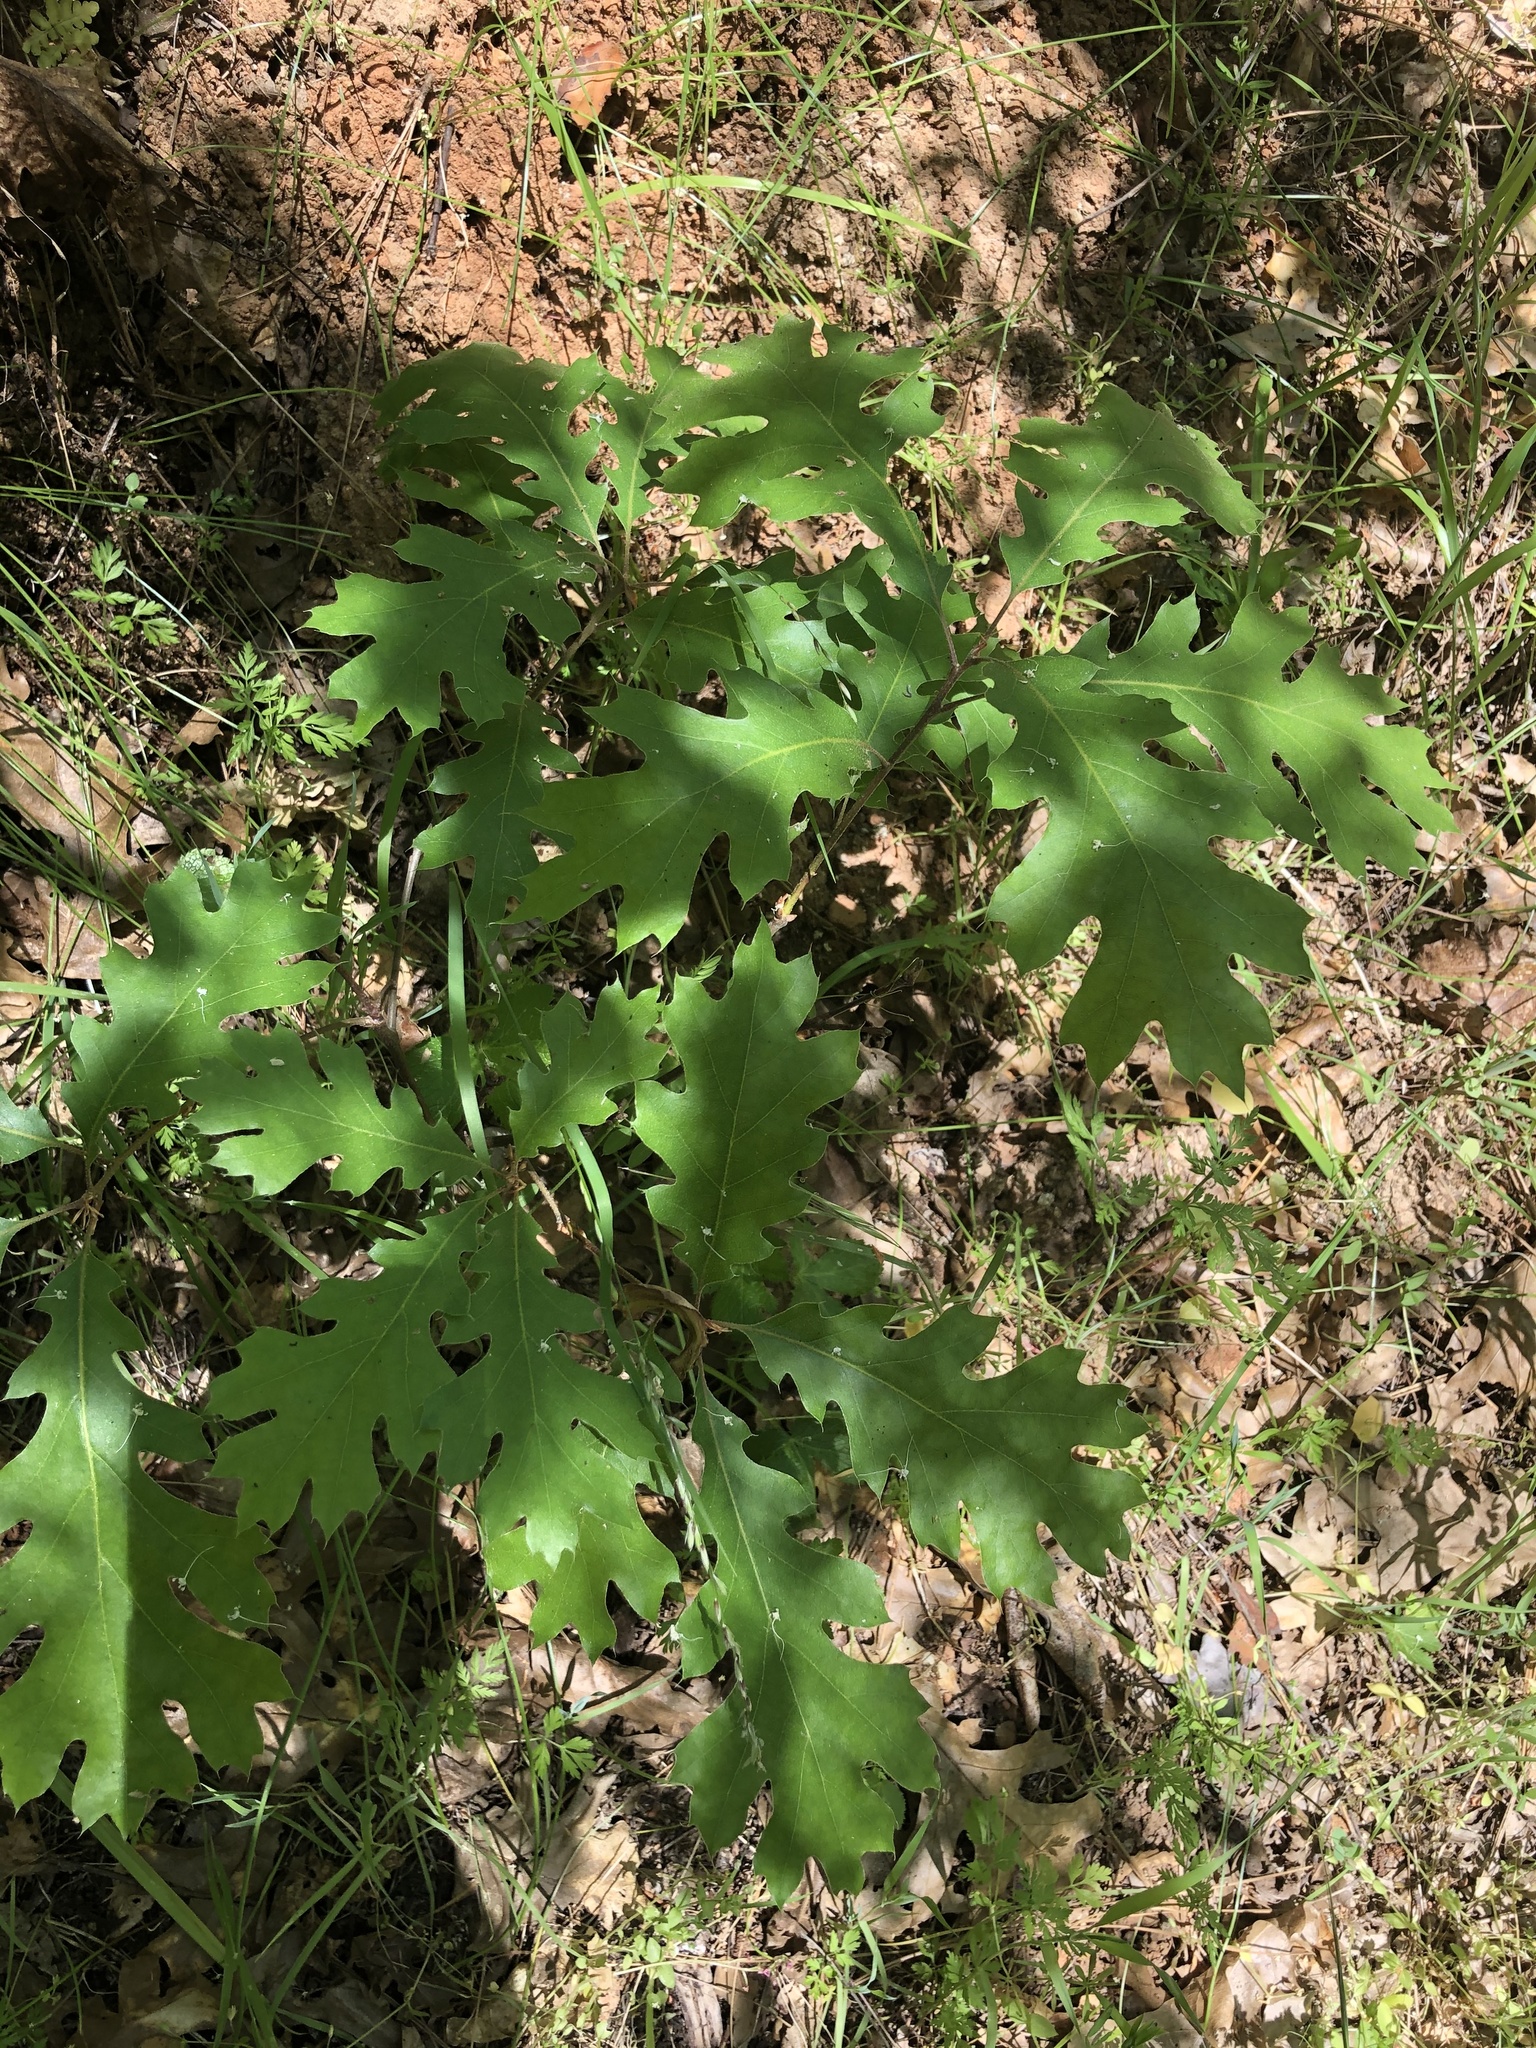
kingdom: Plantae
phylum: Tracheophyta
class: Magnoliopsida
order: Fagales
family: Fagaceae
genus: Quercus
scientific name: Quercus kelloggii
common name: California black oak
